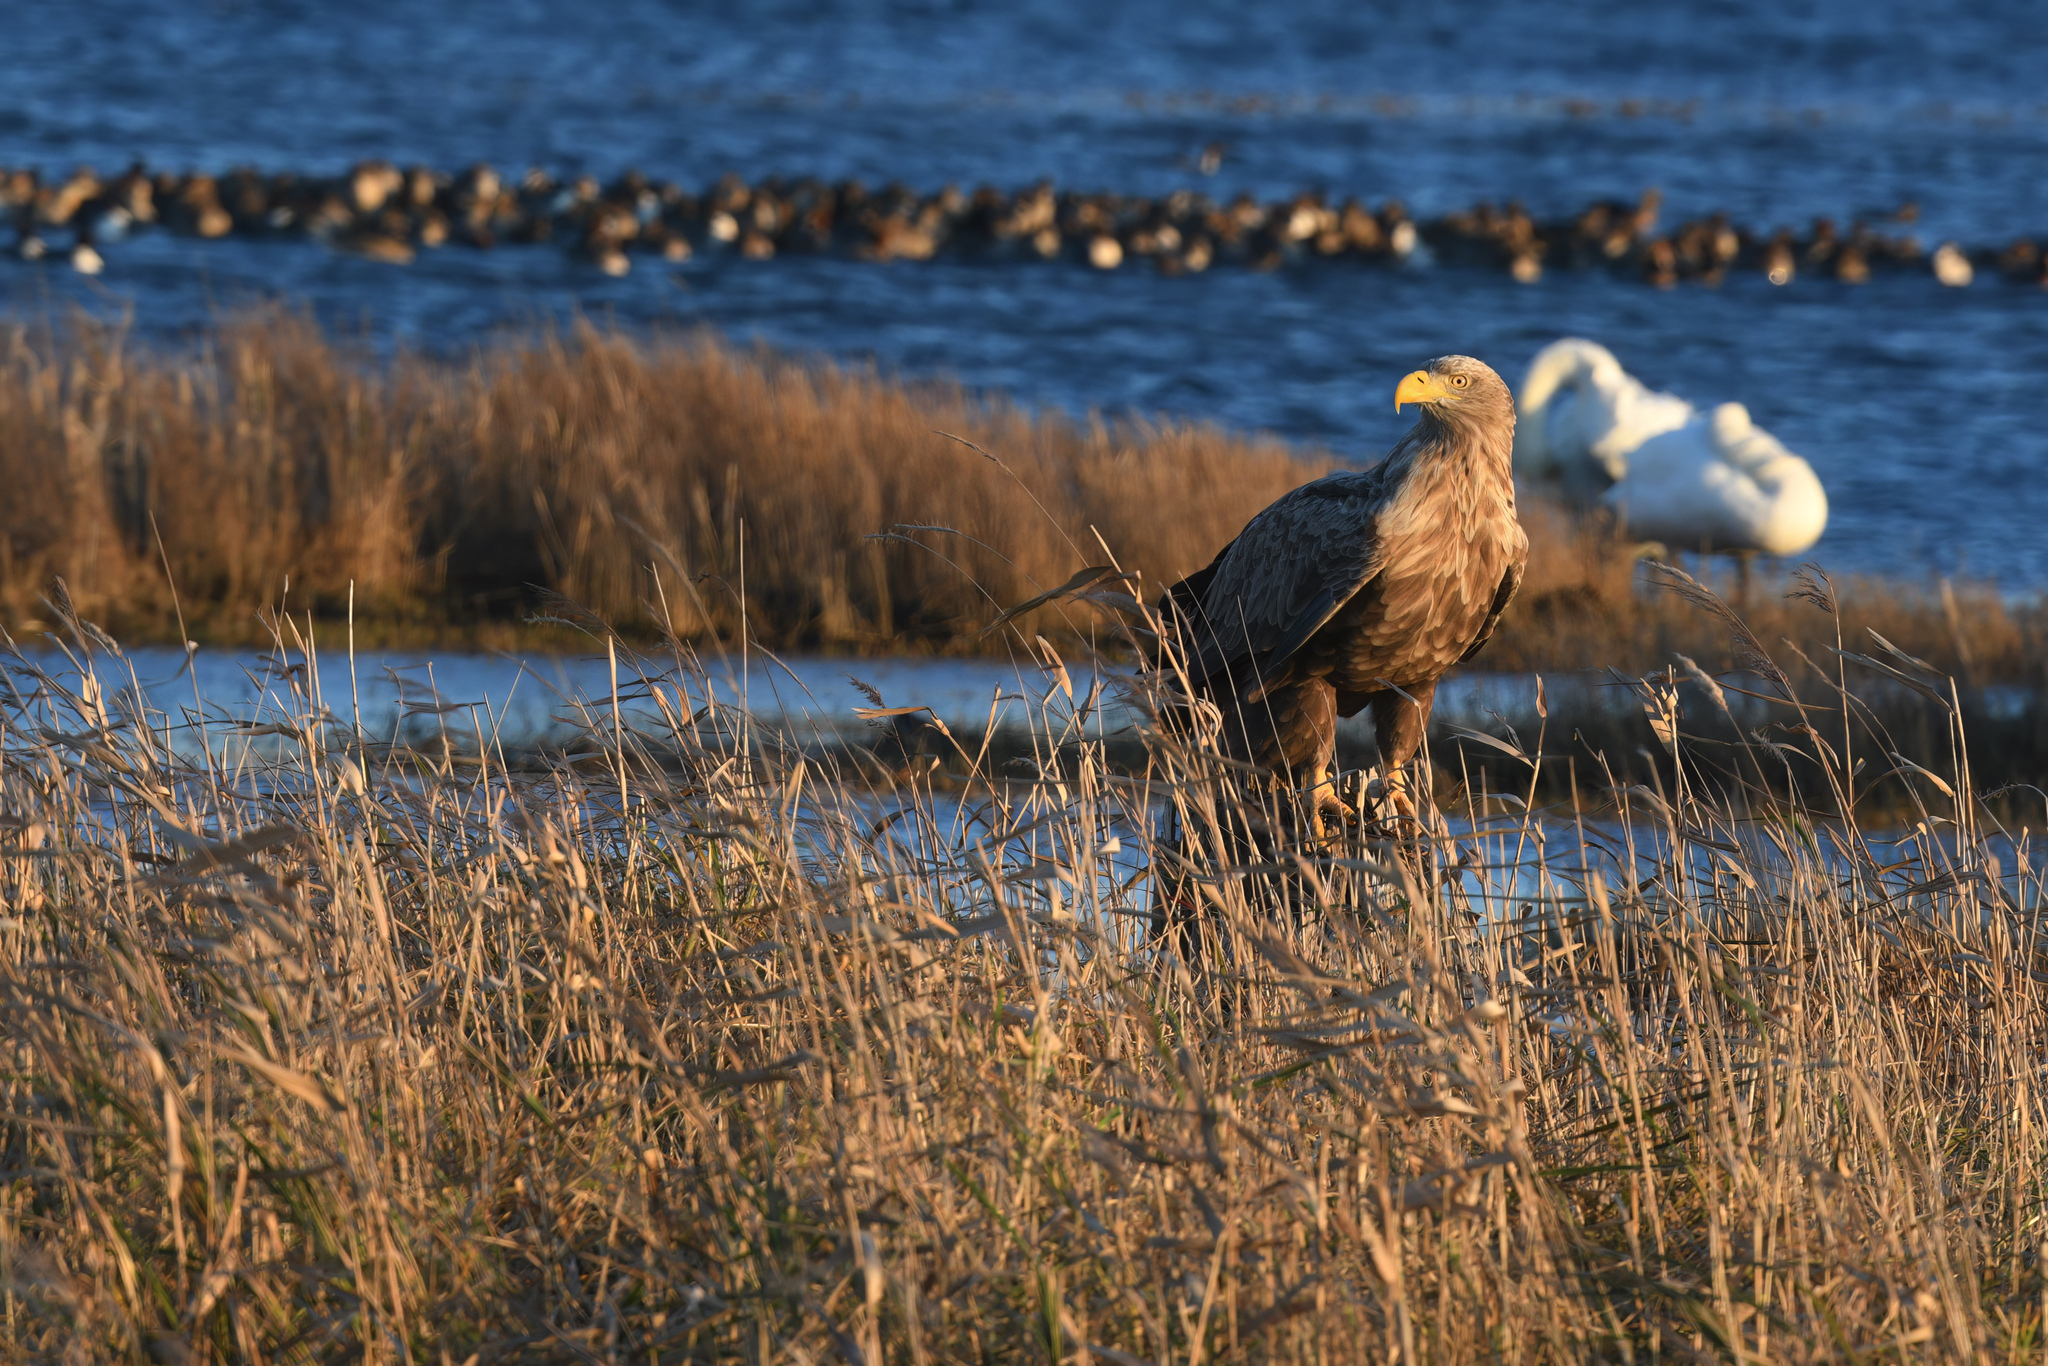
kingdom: Animalia
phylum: Chordata
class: Aves
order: Accipitriformes
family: Accipitridae
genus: Haliaeetus
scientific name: Haliaeetus albicilla
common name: White-tailed eagle
